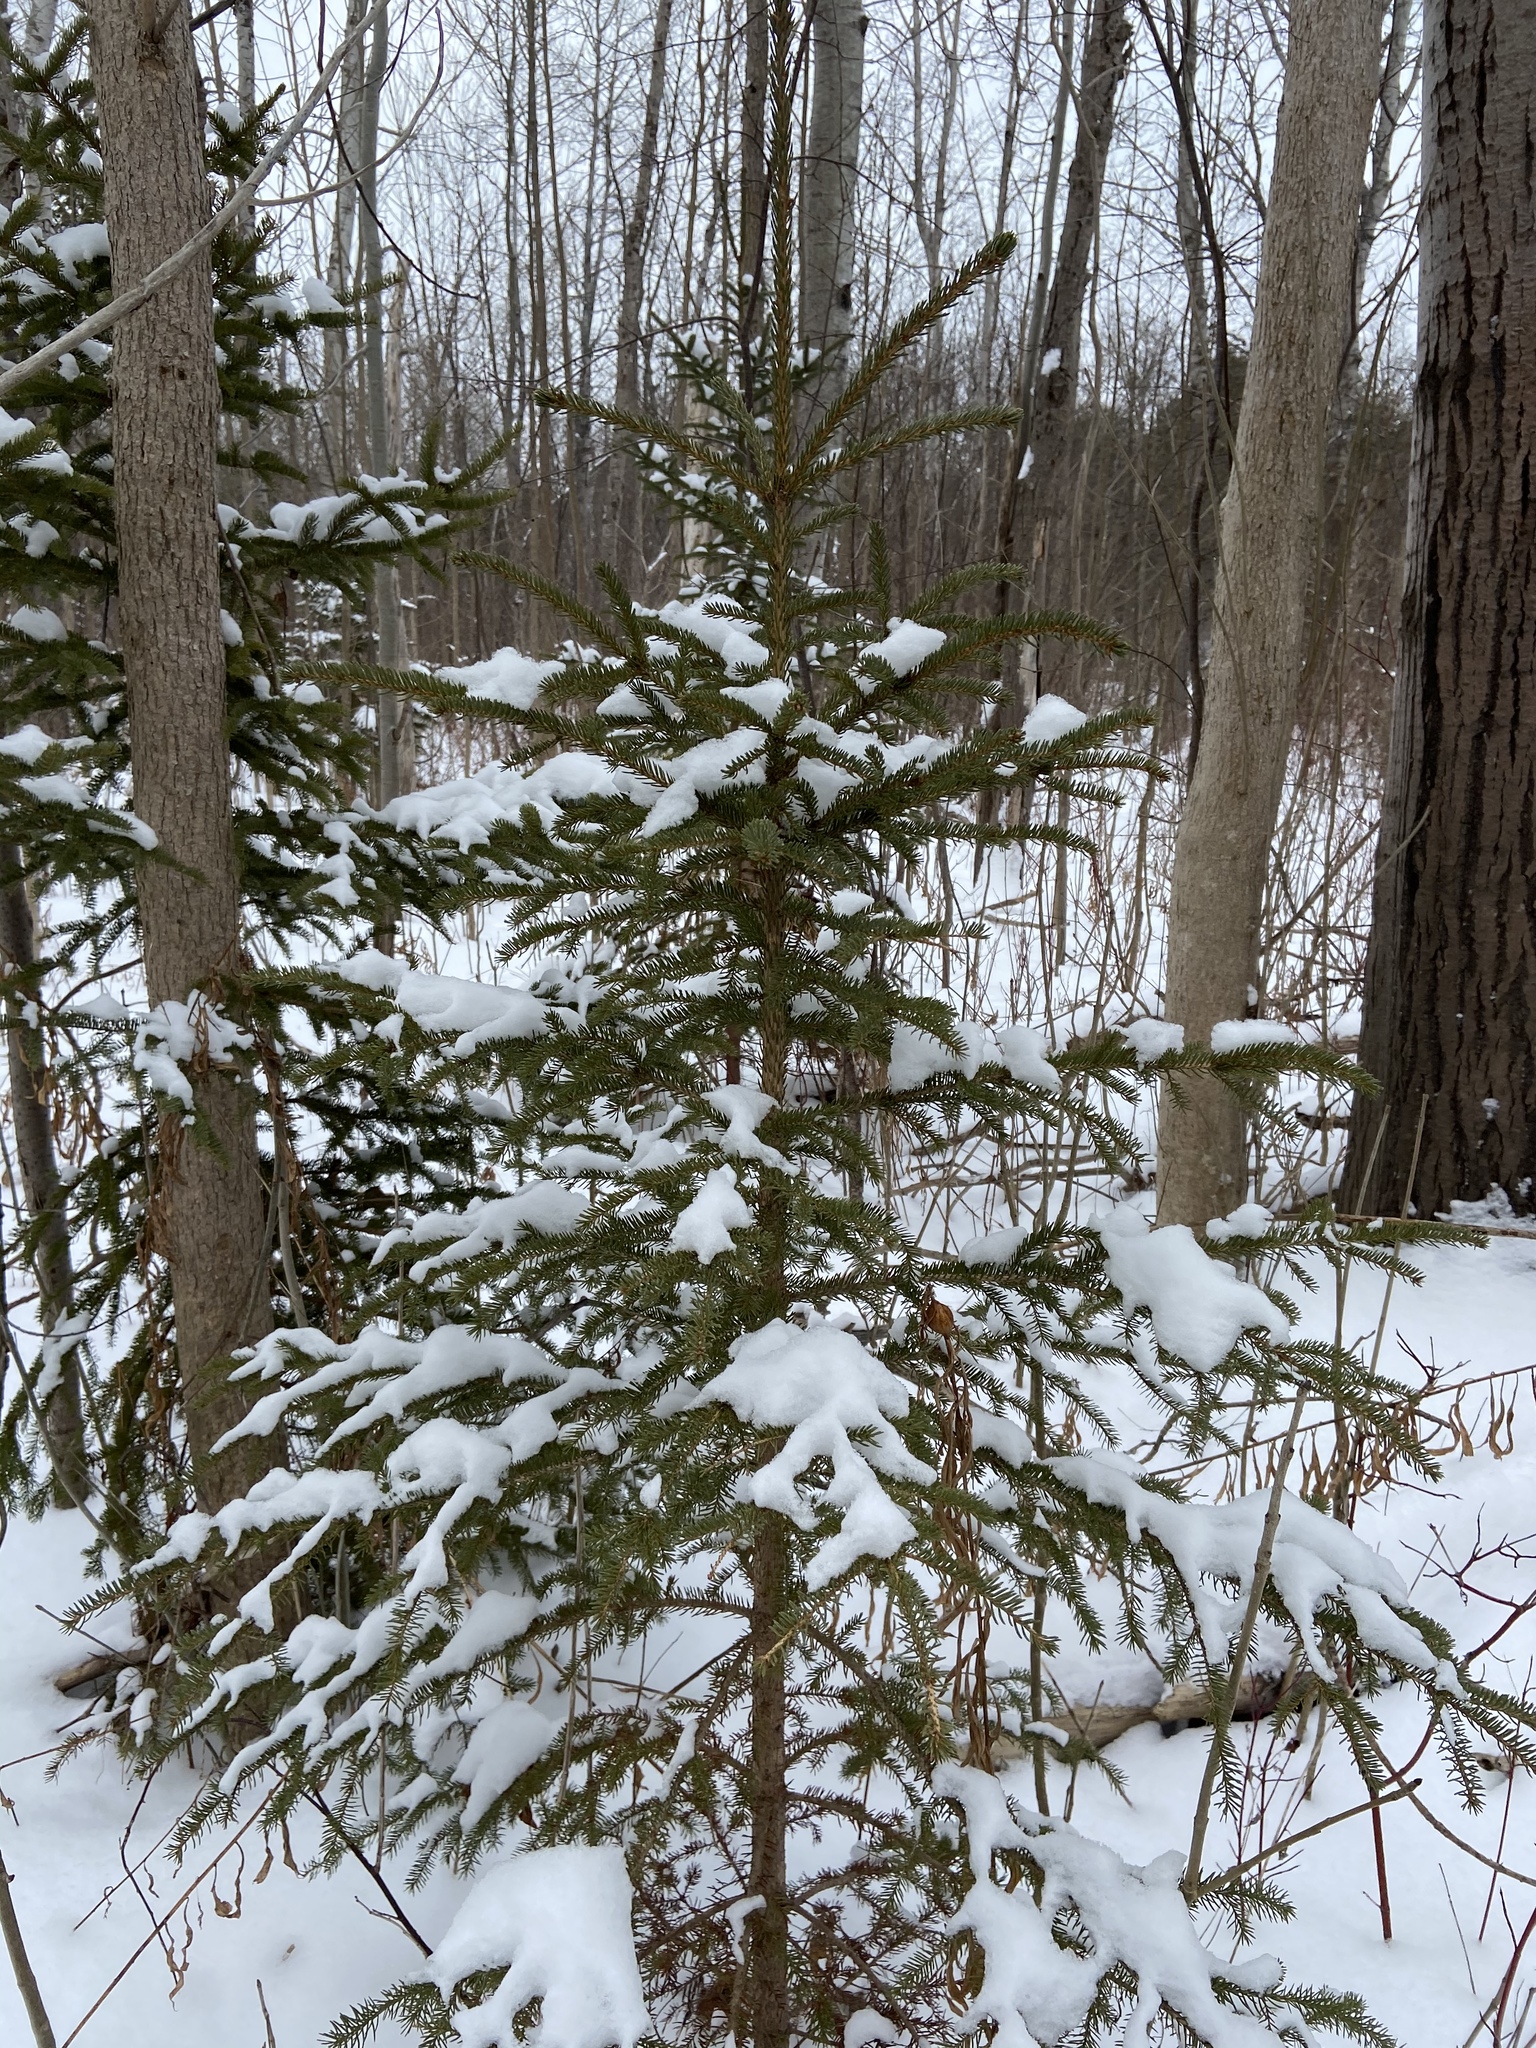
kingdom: Plantae
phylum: Tracheophyta
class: Pinopsida
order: Pinales
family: Pinaceae
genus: Picea
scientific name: Picea glauca
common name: White spruce
